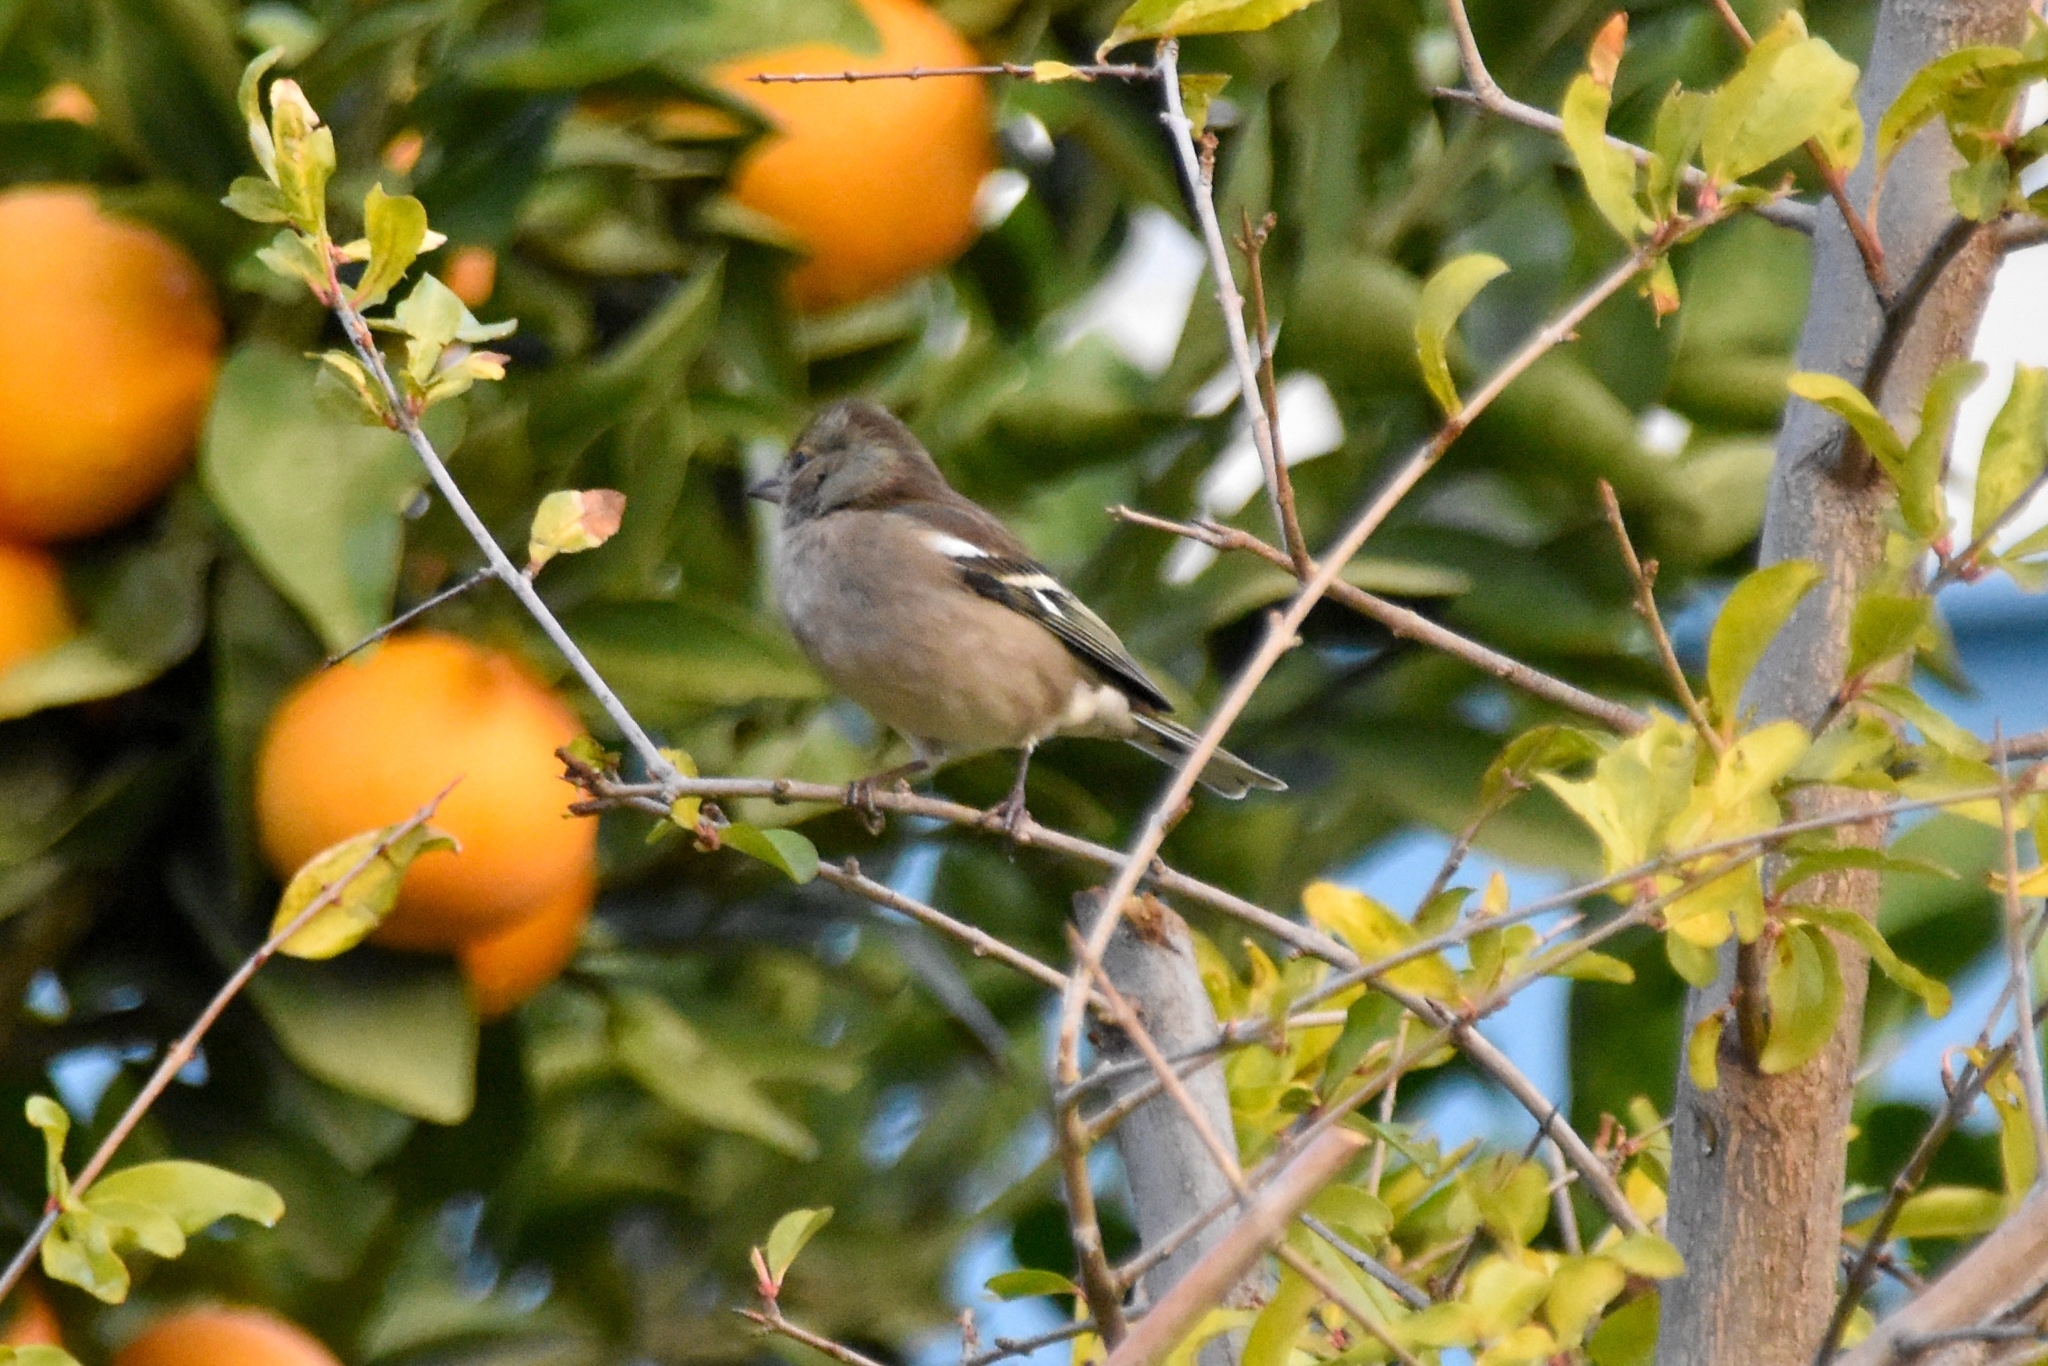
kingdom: Animalia
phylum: Chordata
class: Aves
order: Passeriformes
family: Fringillidae
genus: Fringilla
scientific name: Fringilla coelebs
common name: Common chaffinch
